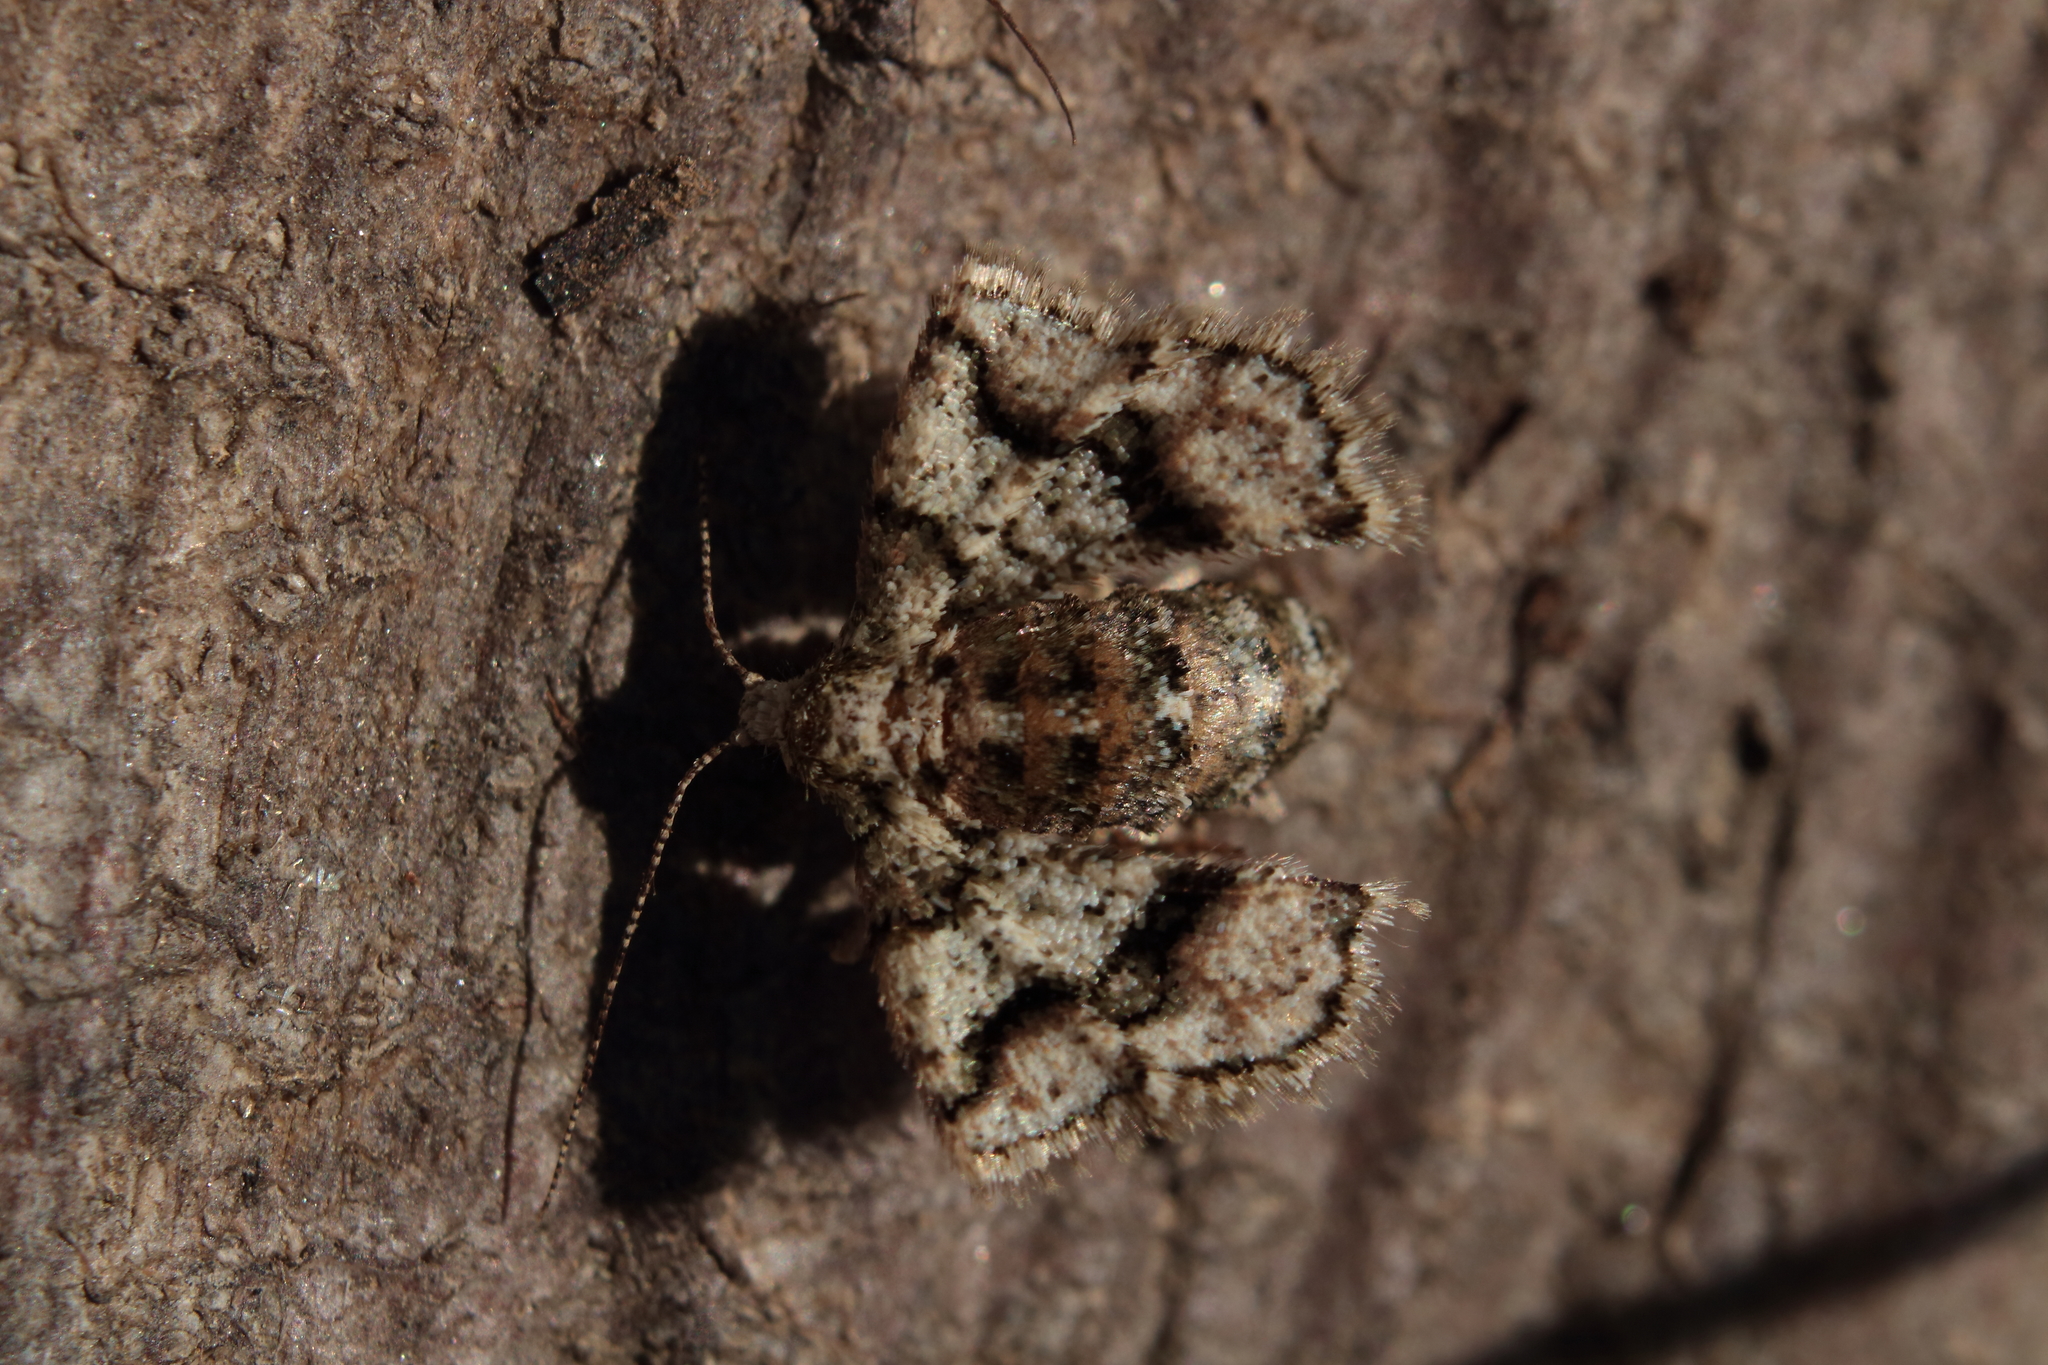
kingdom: Animalia
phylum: Arthropoda
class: Insecta
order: Lepidoptera
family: Geometridae
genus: Agriopis
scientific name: Agriopis marginaria
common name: Dotted border
